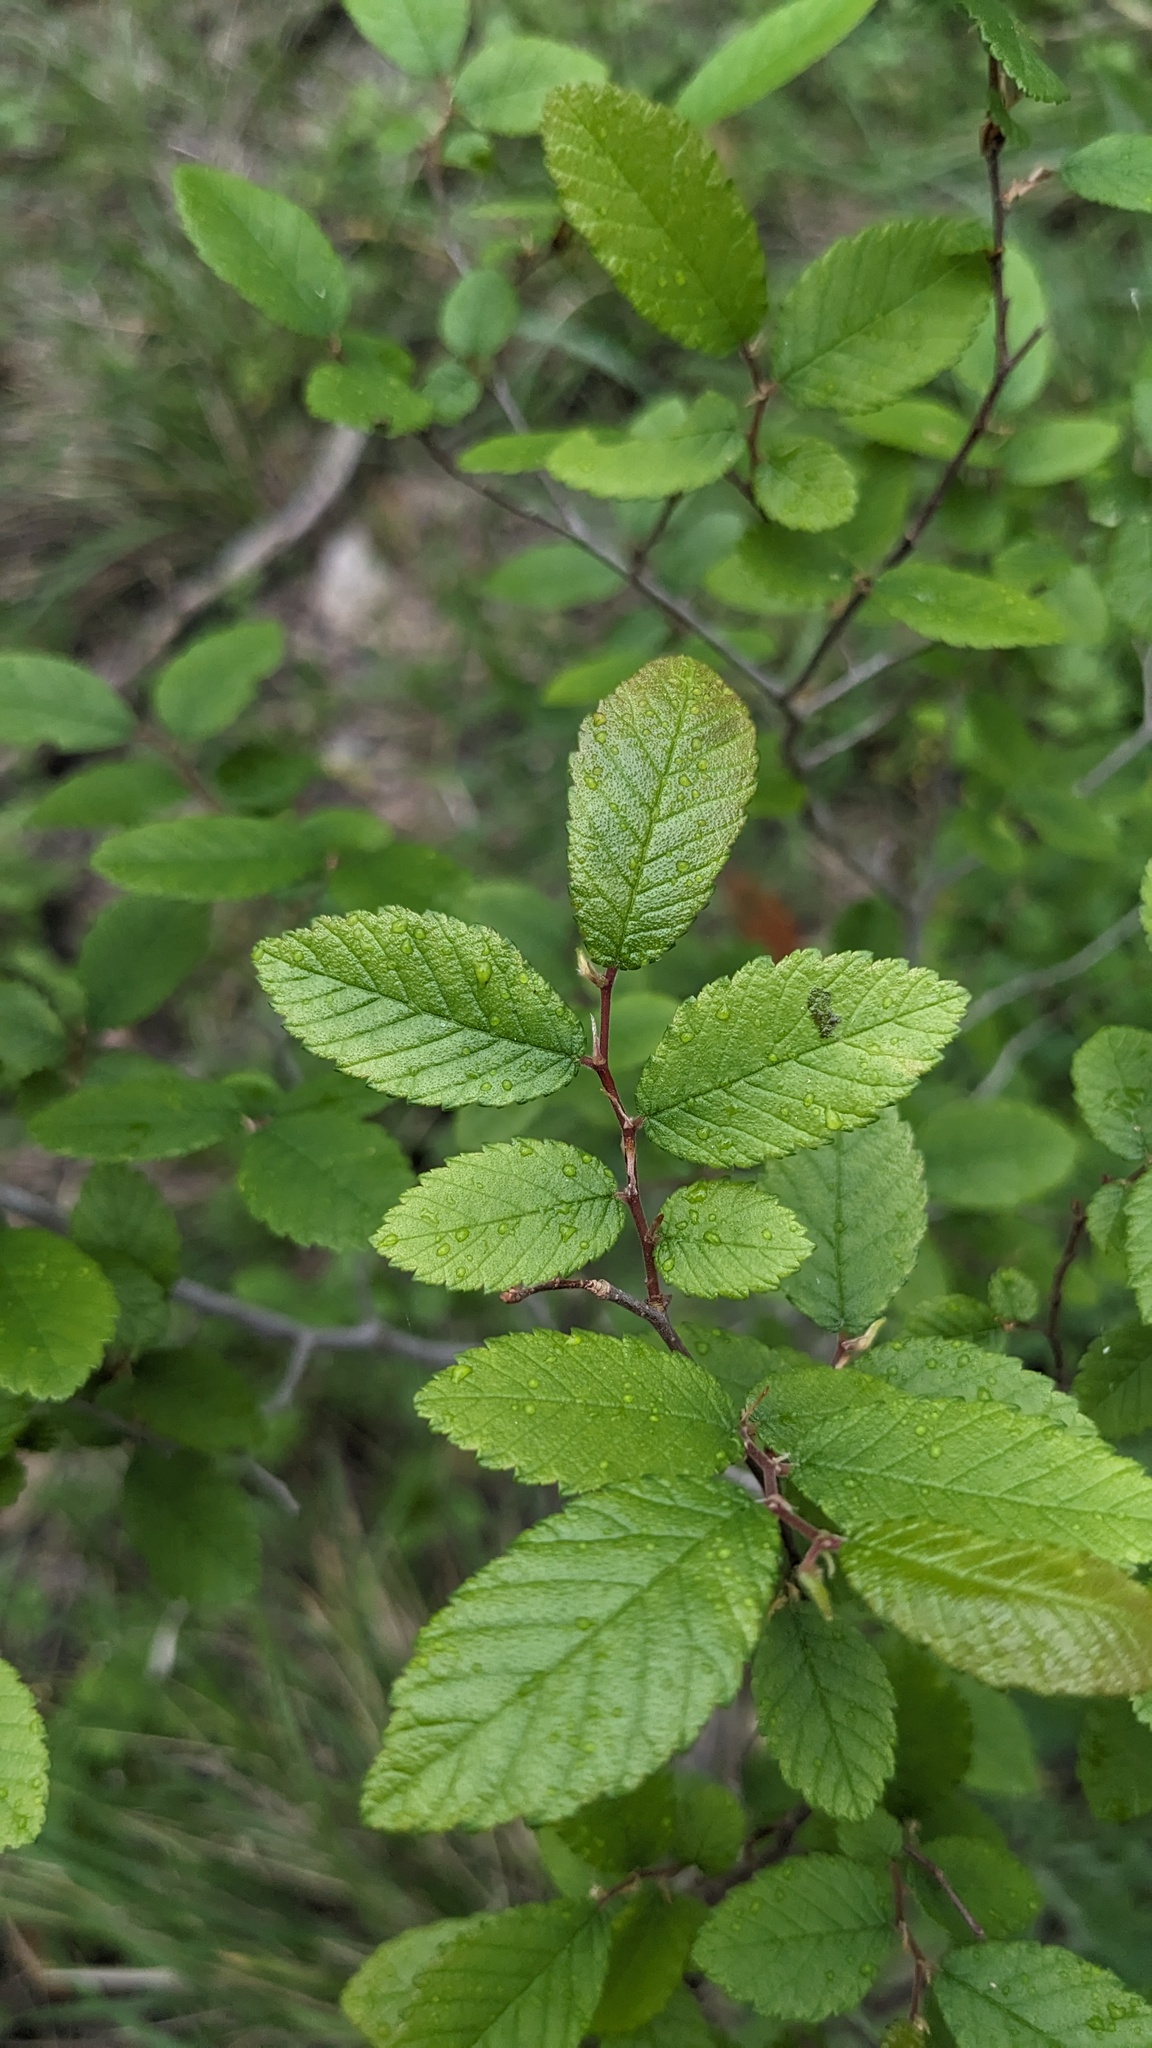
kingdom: Plantae
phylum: Tracheophyta
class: Magnoliopsida
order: Rosales
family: Ulmaceae
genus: Ulmus
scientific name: Ulmus crassifolia
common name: Basket elm
